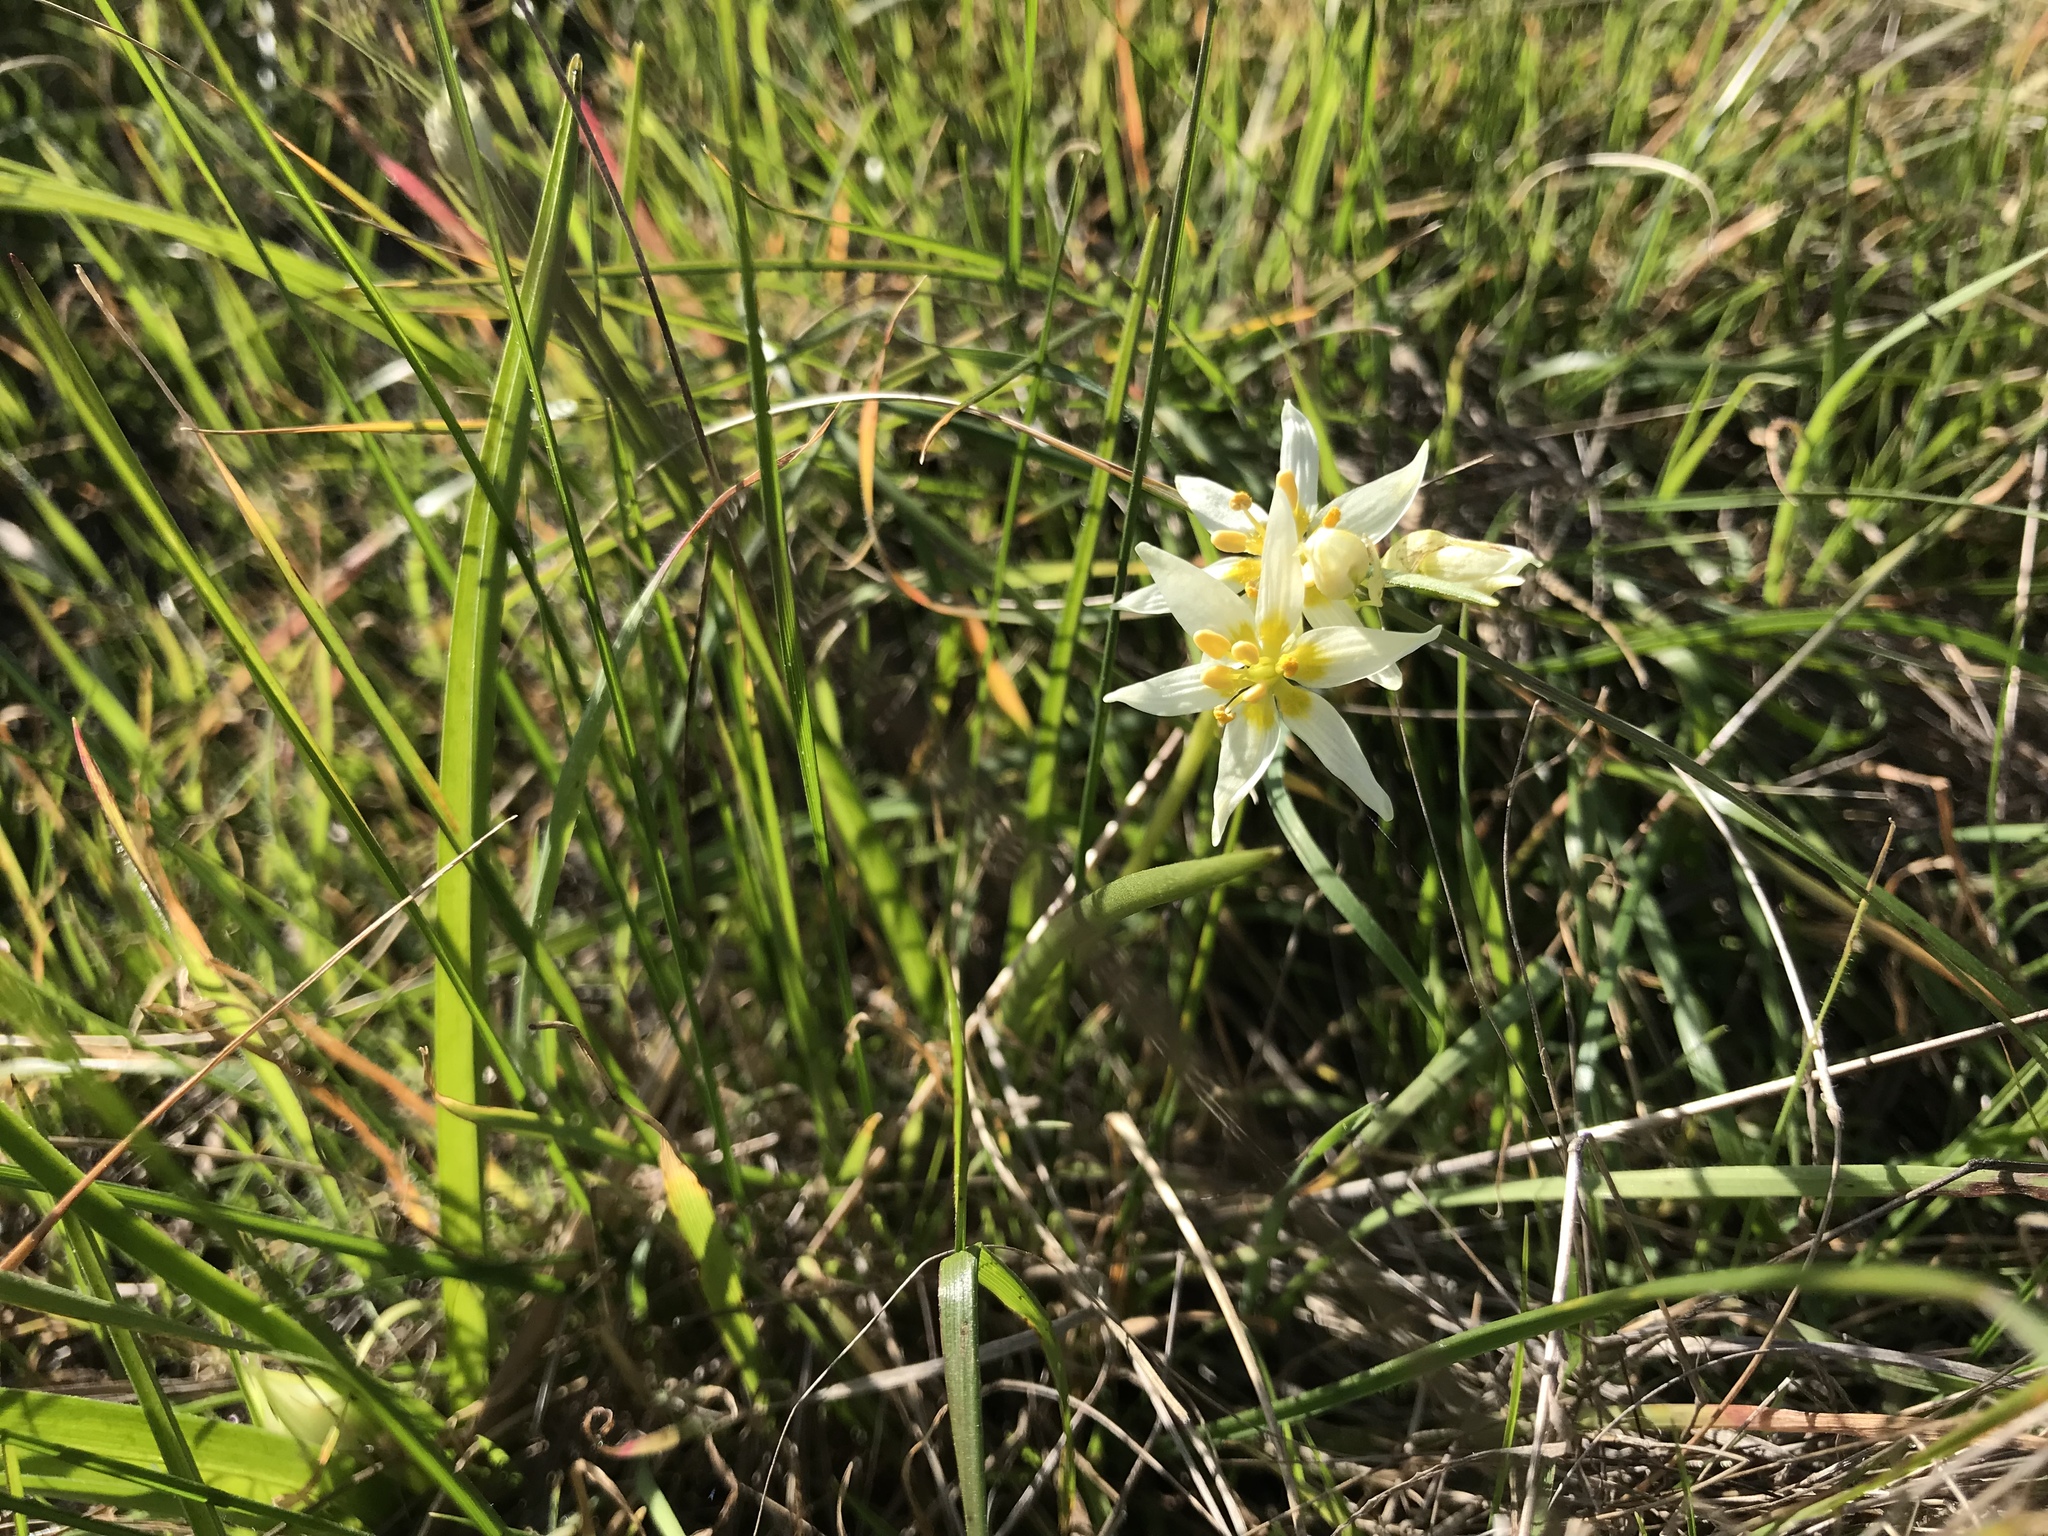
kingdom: Plantae
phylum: Tracheophyta
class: Liliopsida
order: Liliales
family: Melanthiaceae
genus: Toxicoscordion
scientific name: Toxicoscordion fremontii
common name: Fremont's death camas
